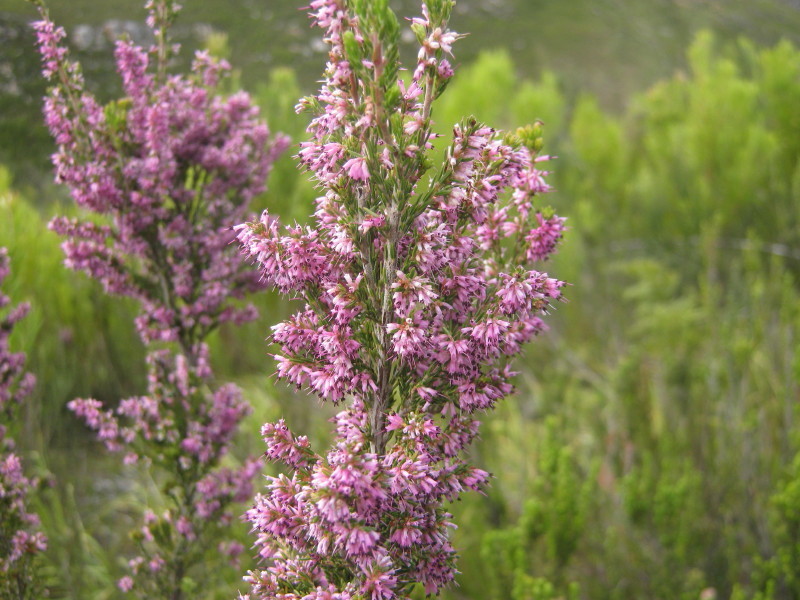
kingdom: Plantae
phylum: Tracheophyta
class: Magnoliopsida
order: Ericales
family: Ericaceae
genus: Erica
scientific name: Erica uberiflora
